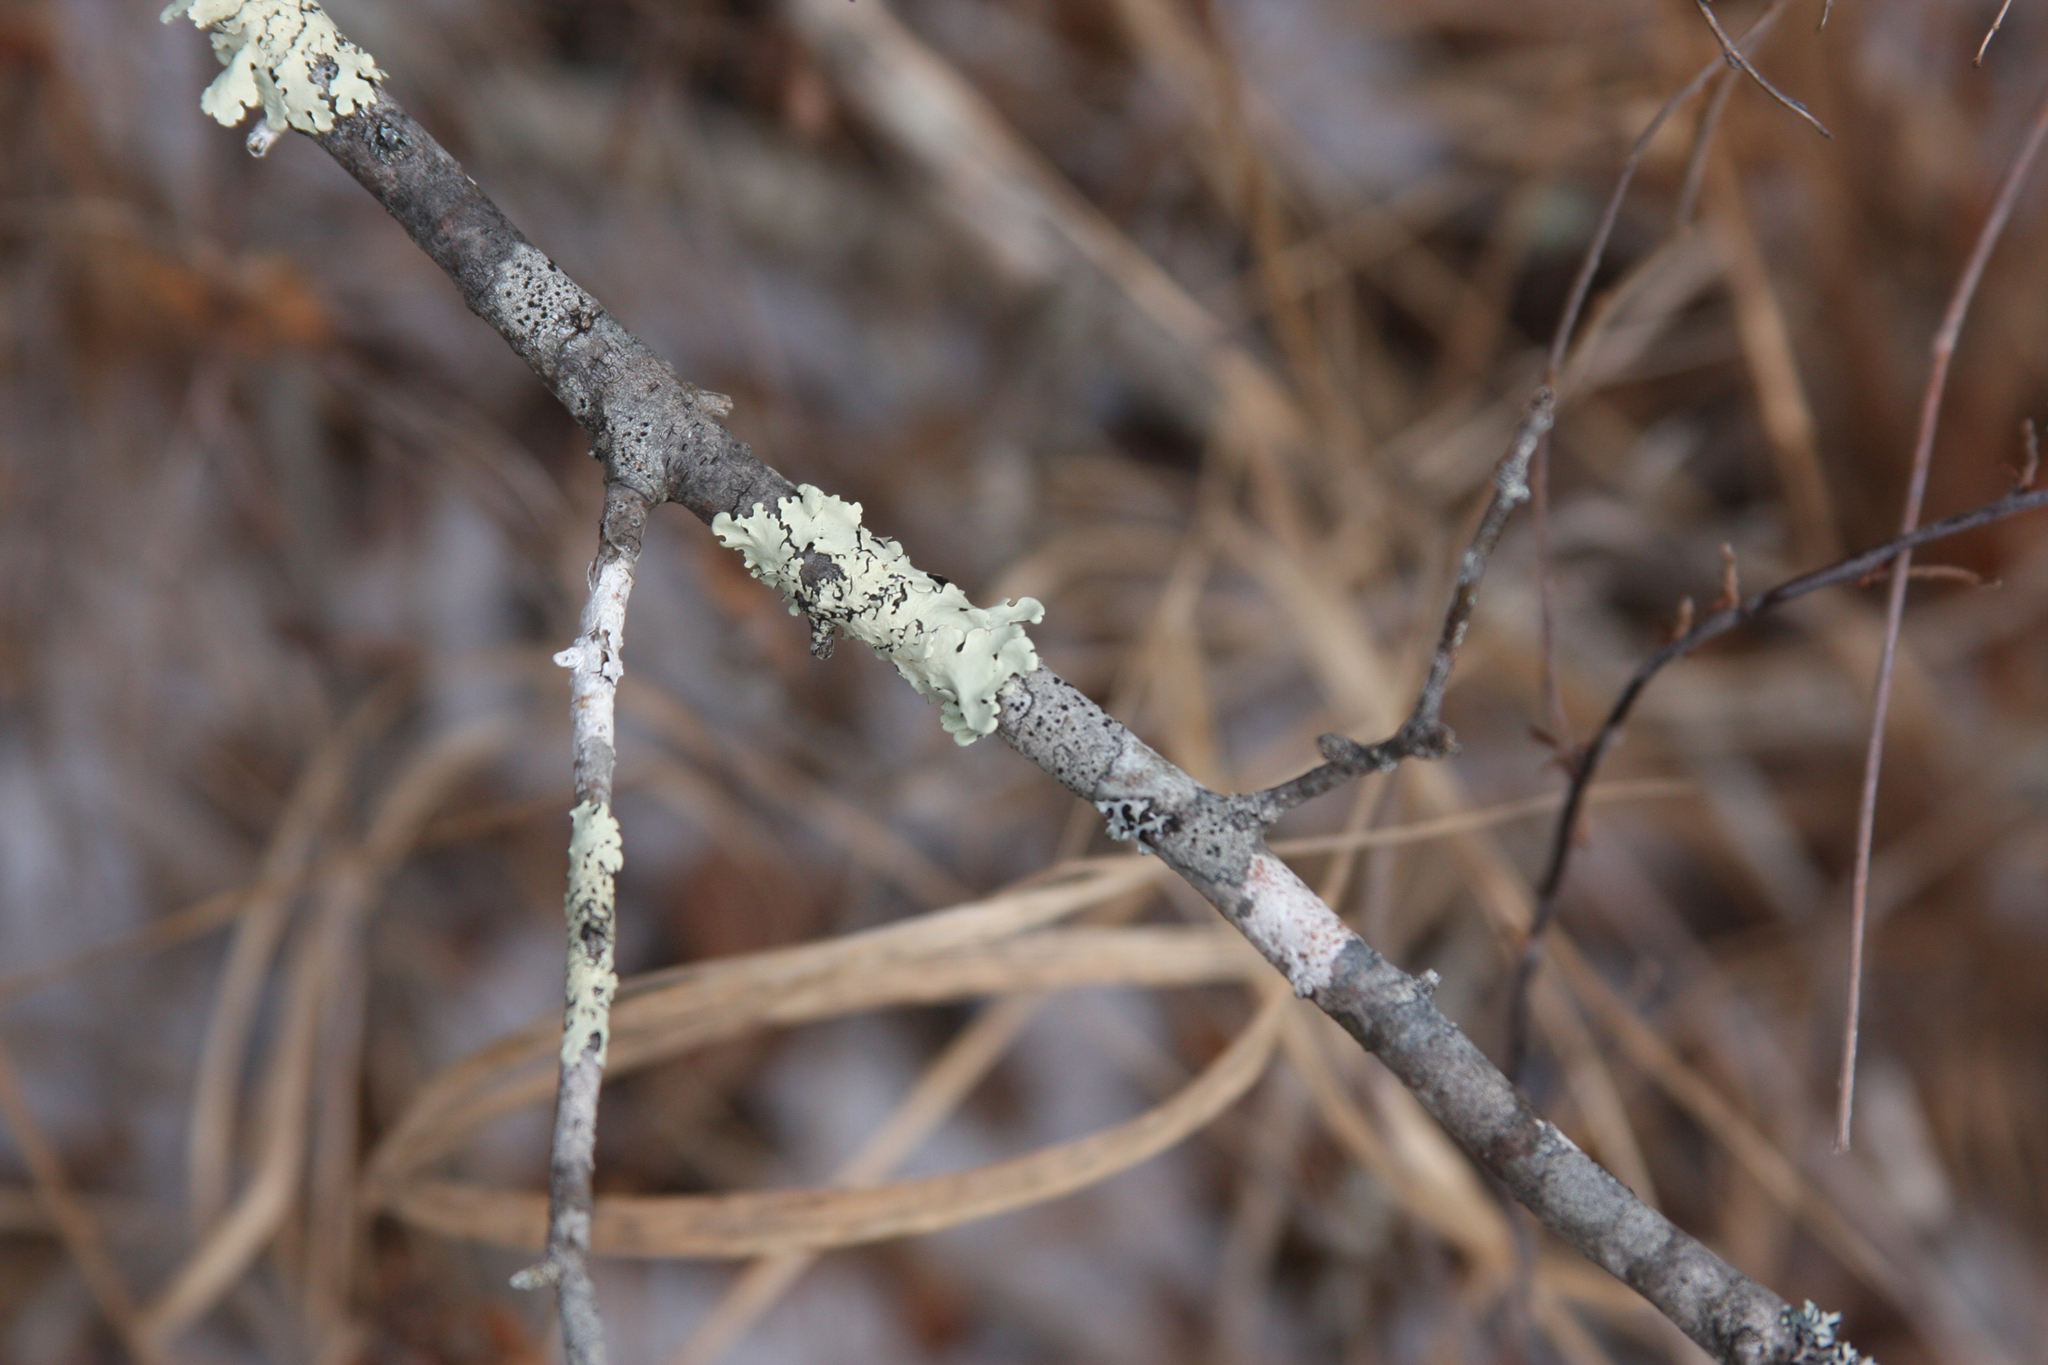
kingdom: Fungi
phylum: Ascomycota
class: Lecanoromycetes
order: Lecanorales
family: Parmeliaceae
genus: Flavoparmelia
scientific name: Flavoparmelia caperata
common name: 40-mile per hour lichen
